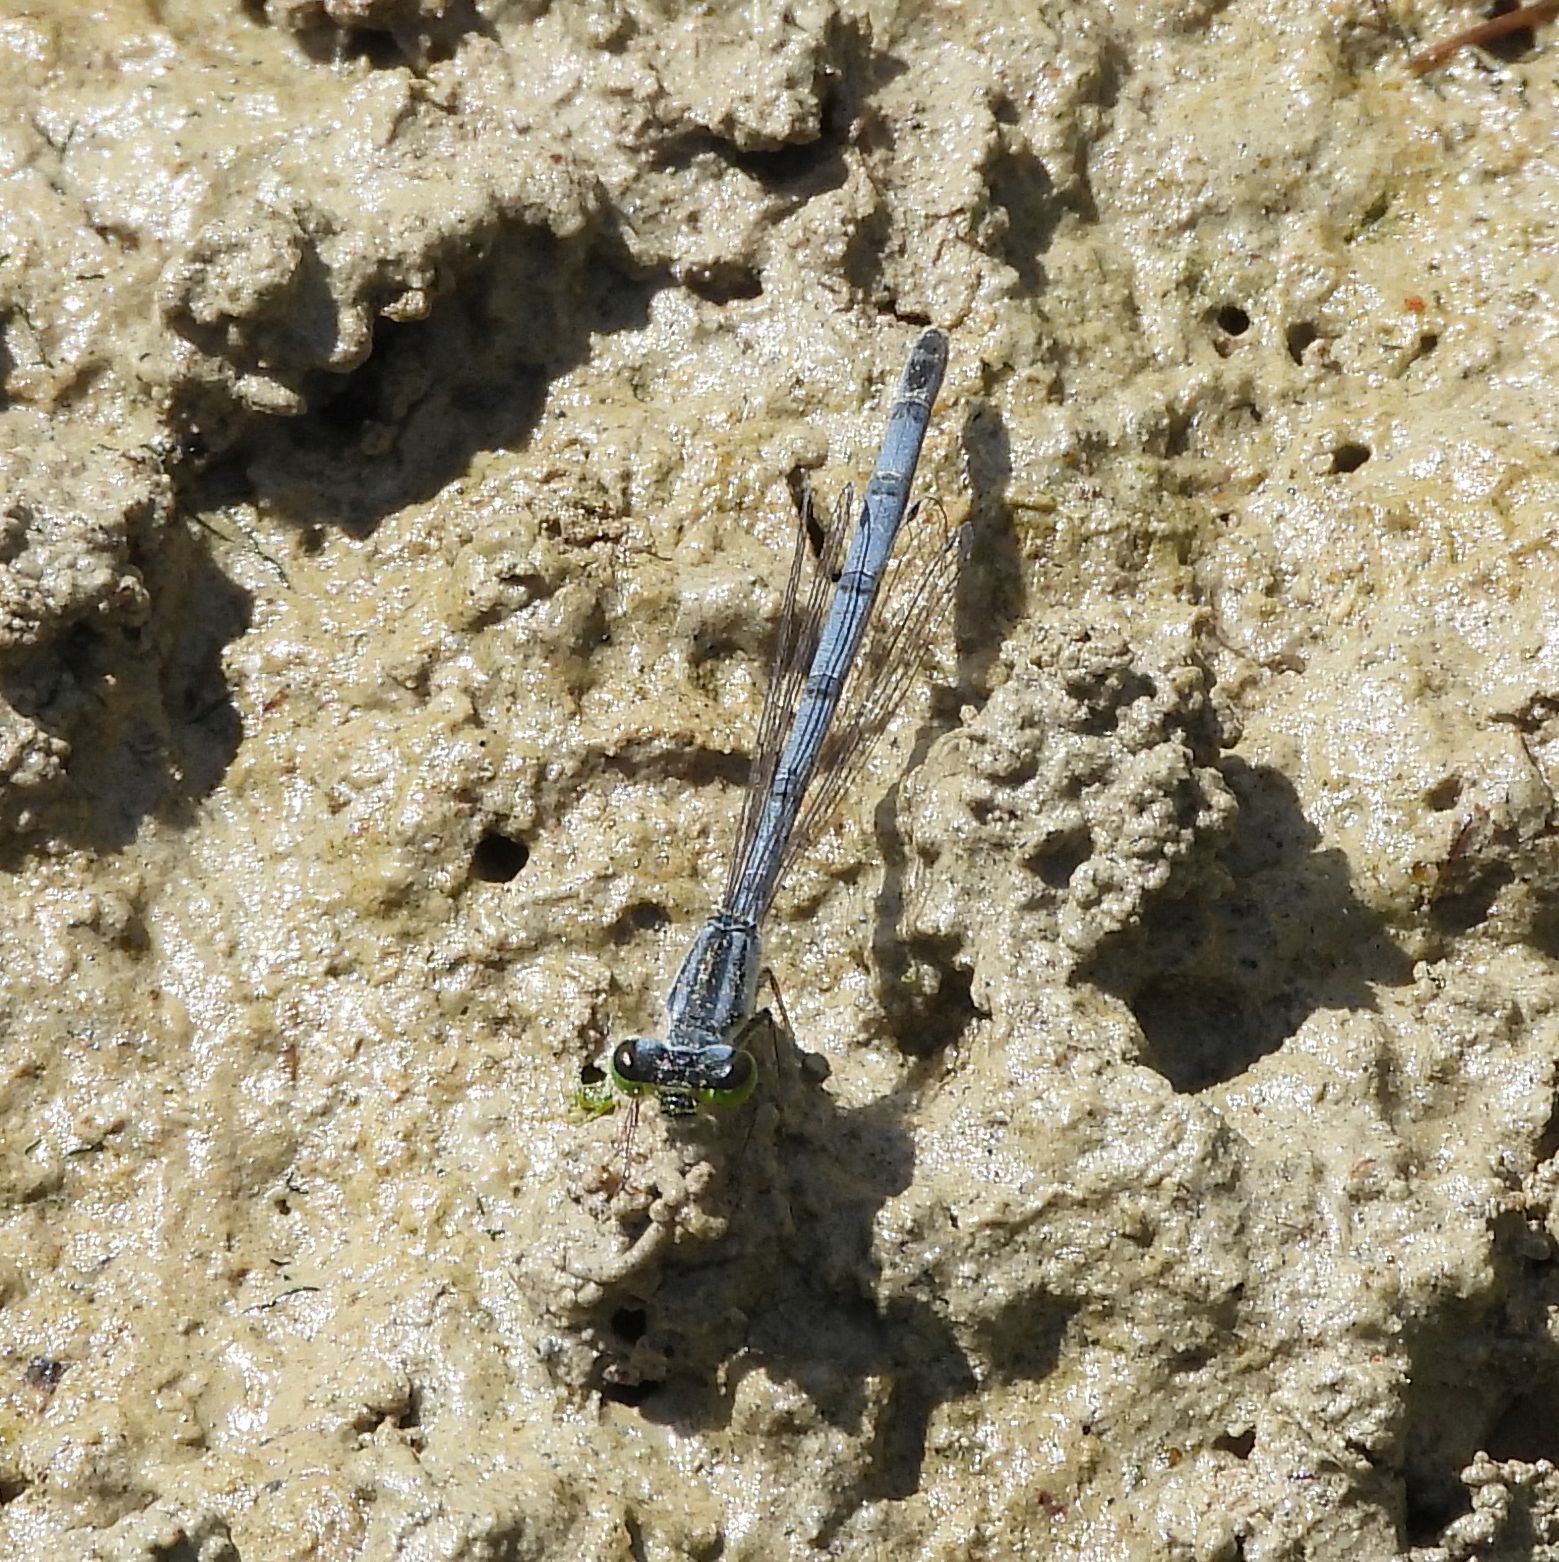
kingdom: Animalia
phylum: Arthropoda
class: Insecta
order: Odonata
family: Coenagrionidae
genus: Ischnura
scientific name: Ischnura verticalis
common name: Eastern forktail
